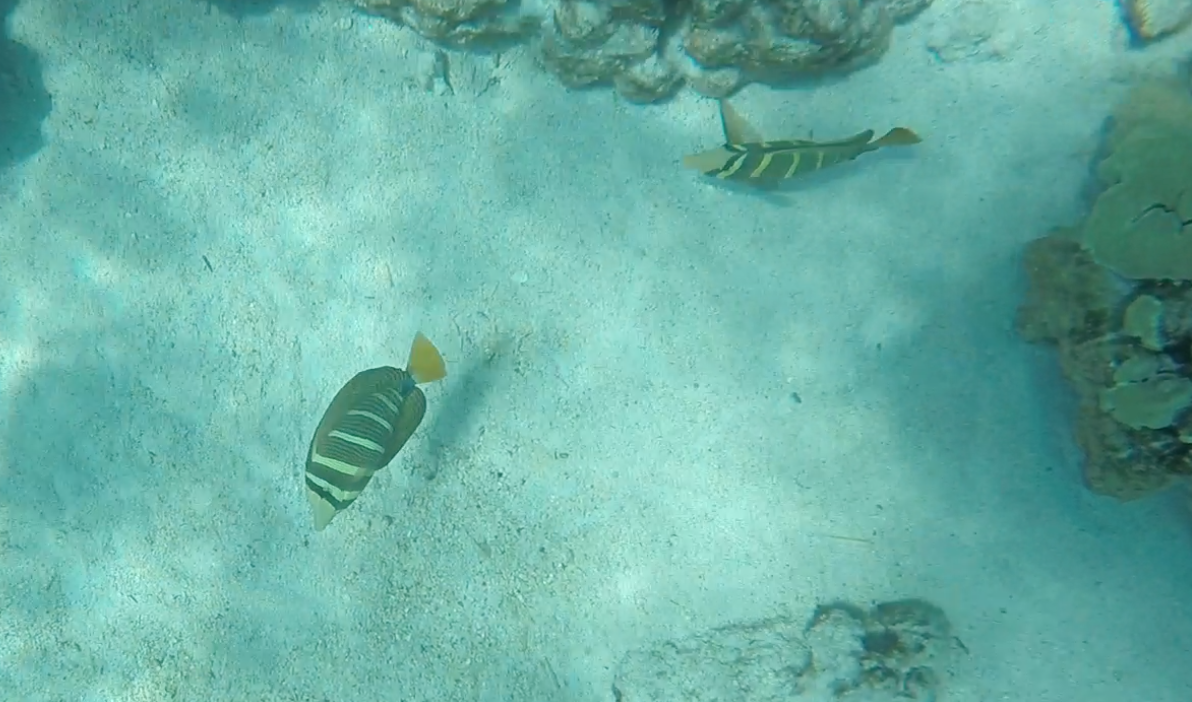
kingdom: Animalia
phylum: Chordata
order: Perciformes
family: Acanthuridae
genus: Zebrasoma
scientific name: Zebrasoma veliferum
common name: Sailfin surgeonfish
